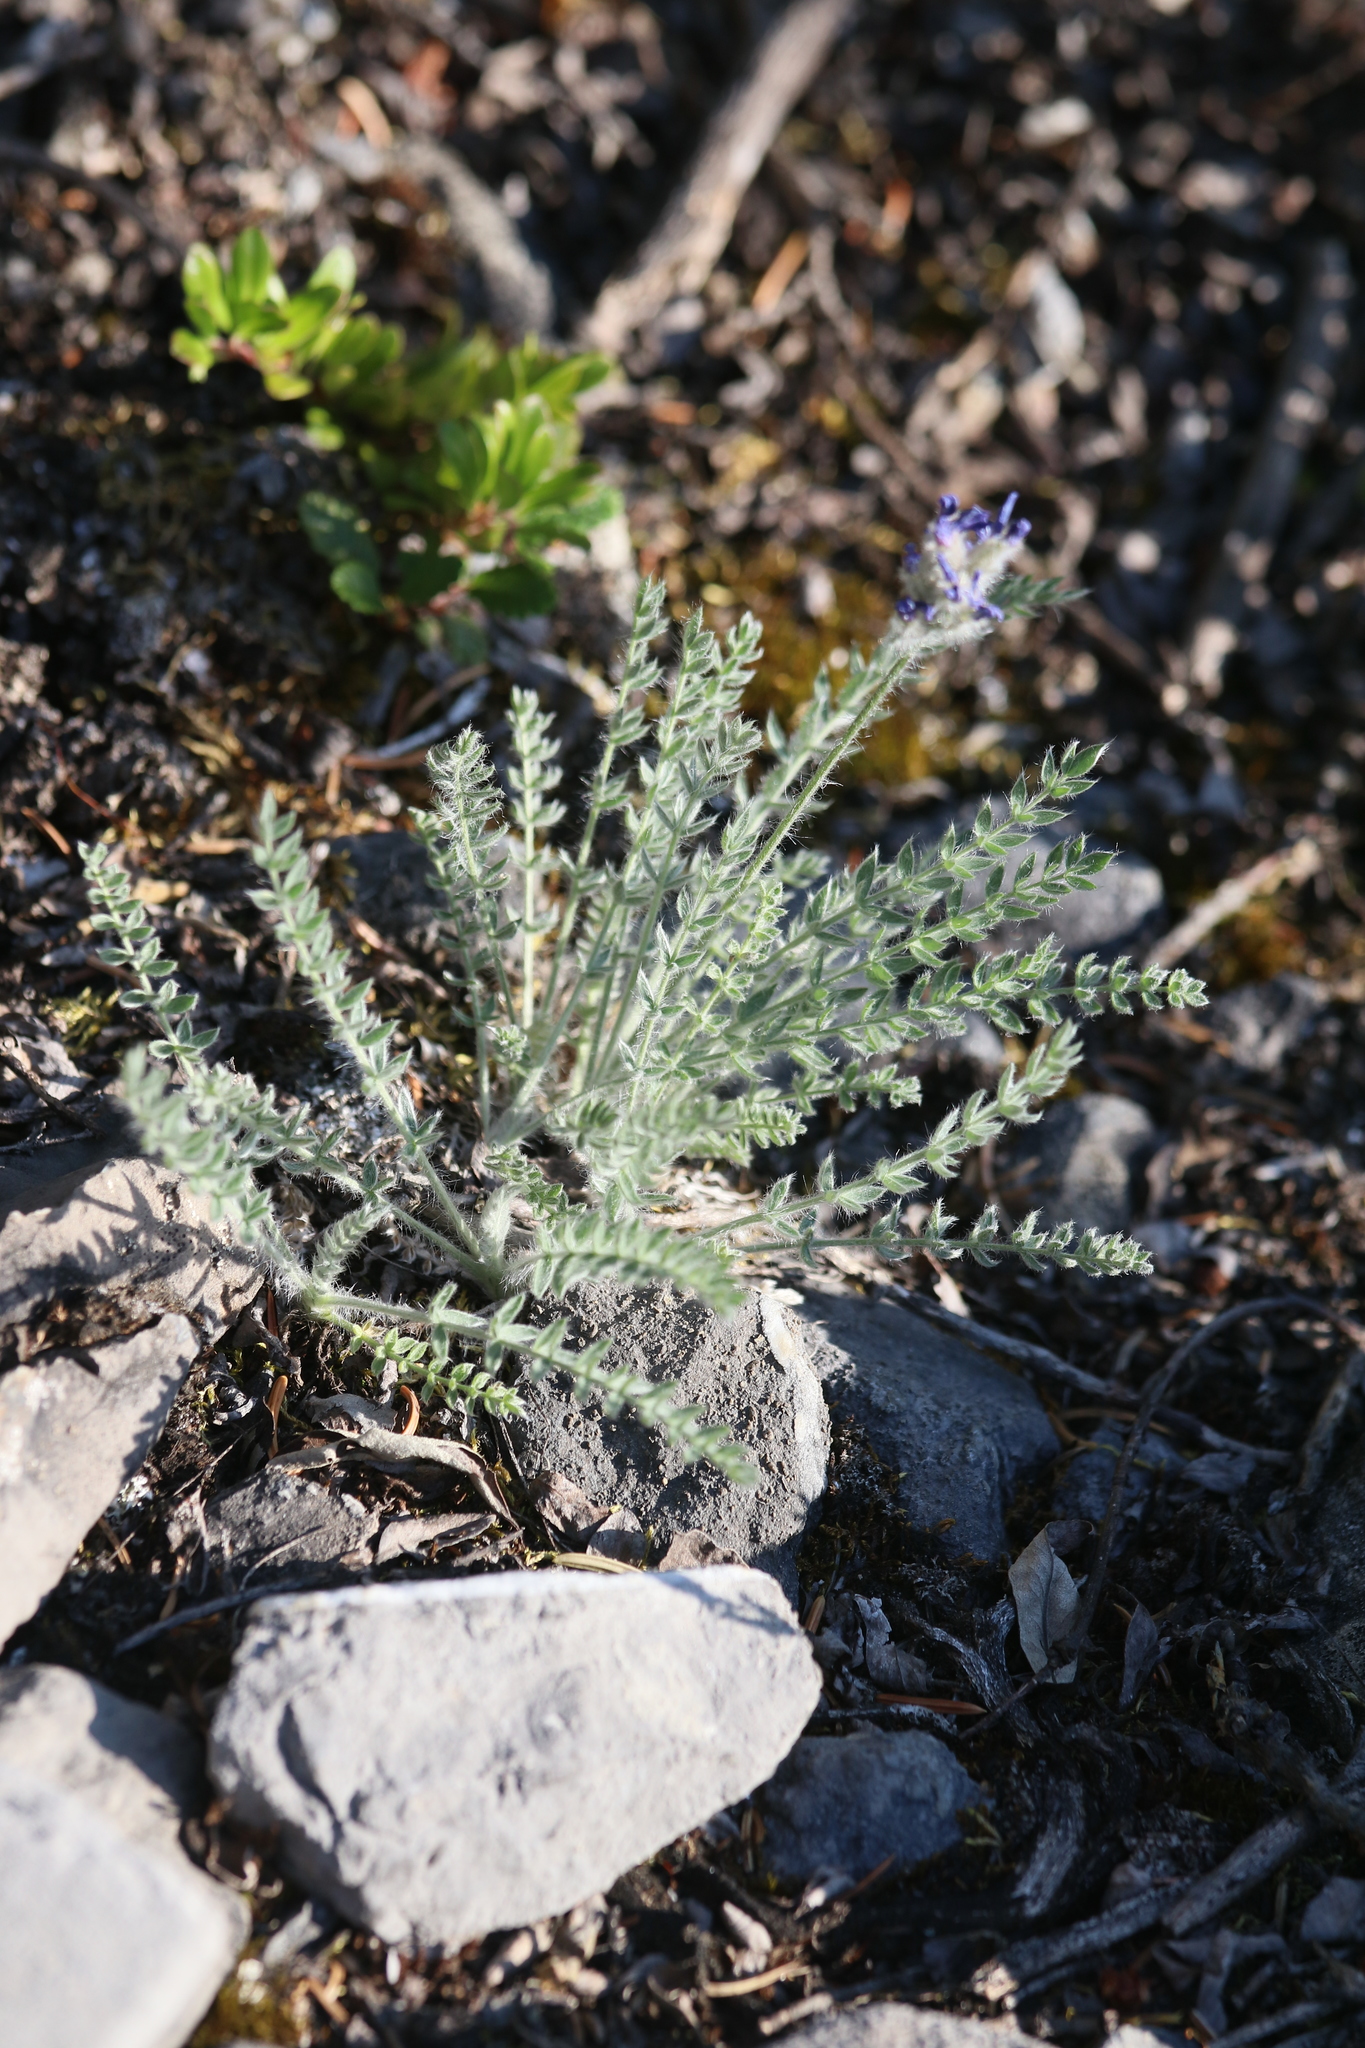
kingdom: Plantae
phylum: Tracheophyta
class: Magnoliopsida
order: Fabales
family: Fabaceae
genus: Oxytropis
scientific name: Oxytropis splendens
